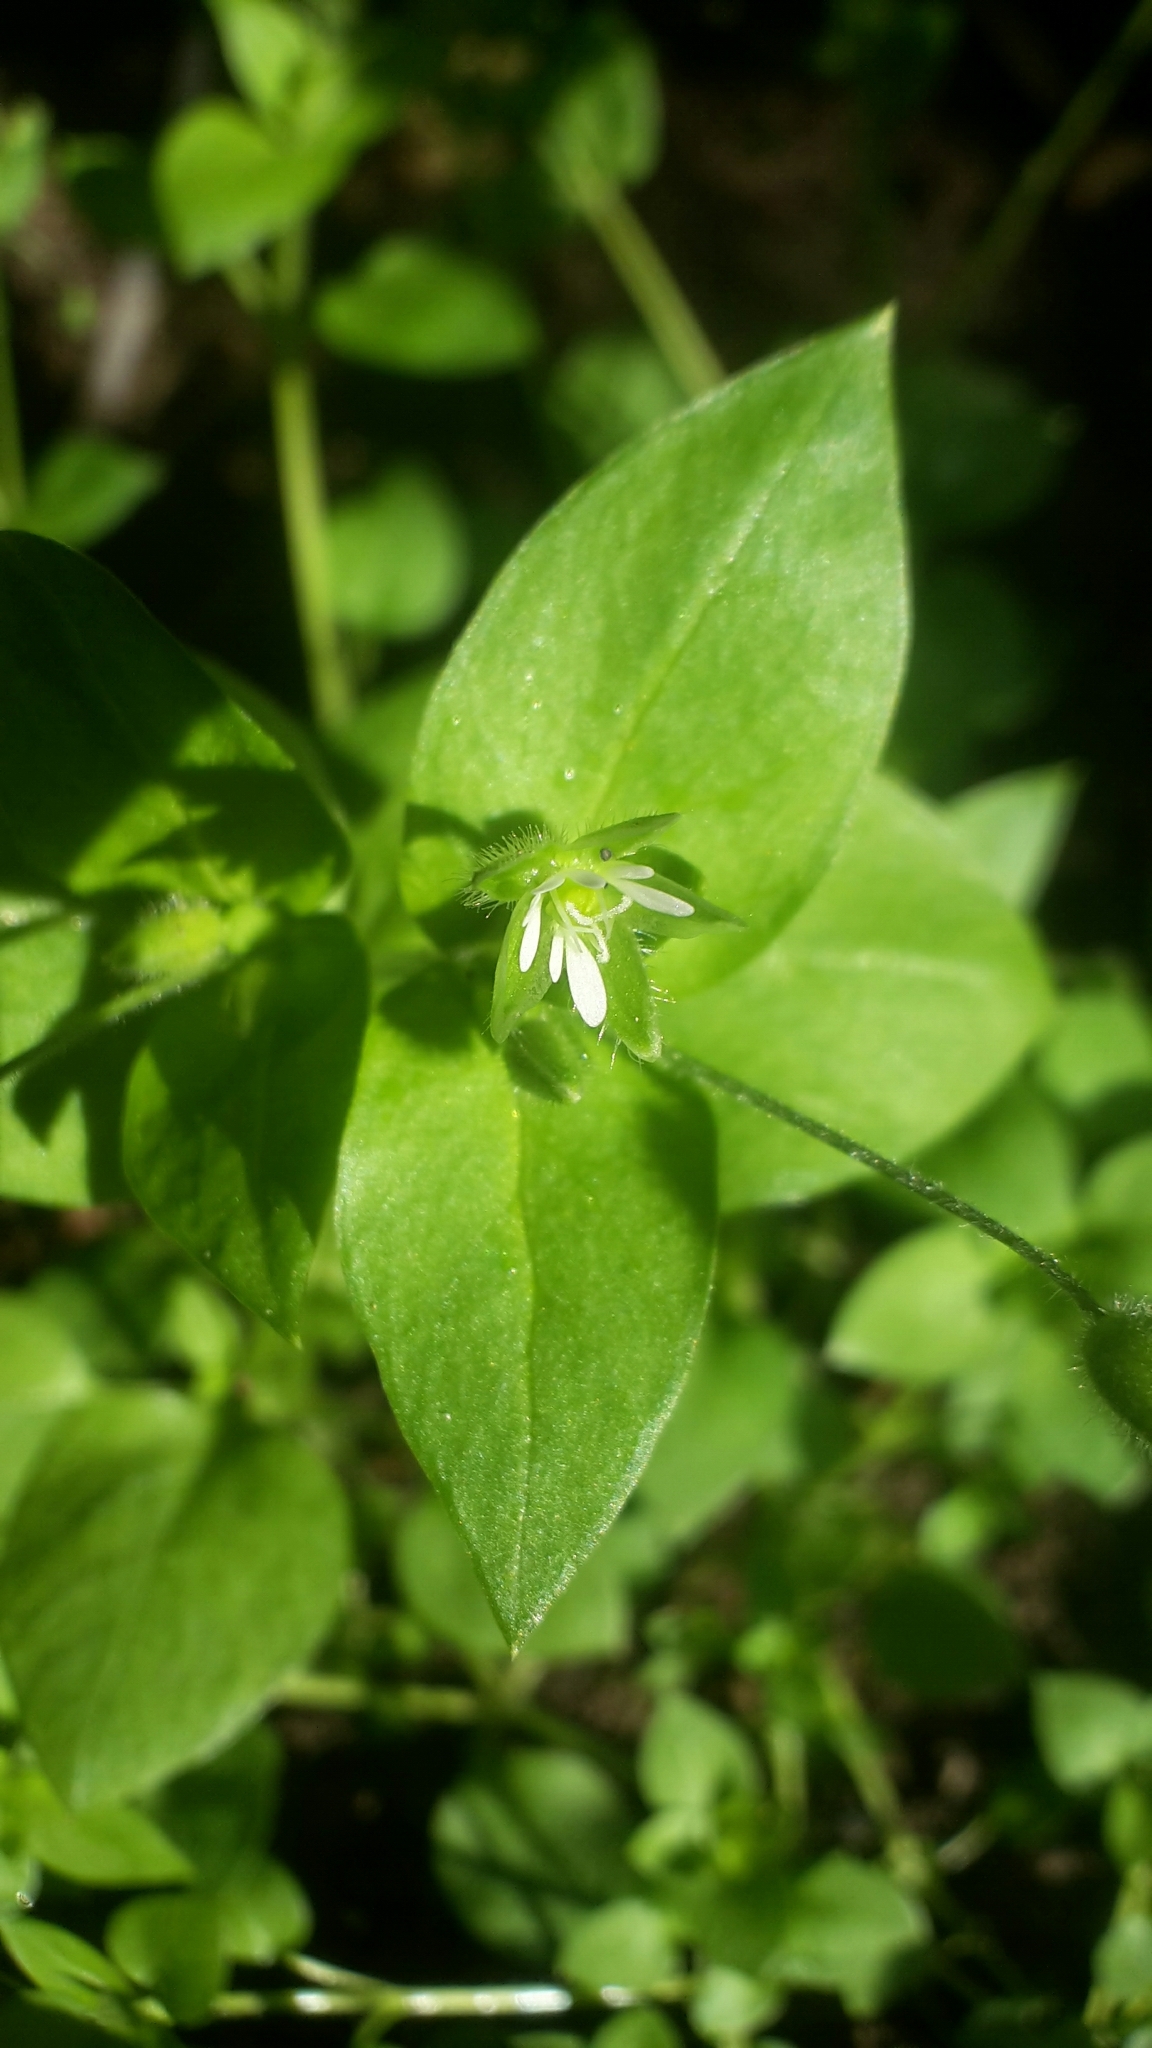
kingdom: Plantae
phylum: Tracheophyta
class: Magnoliopsida
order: Caryophyllales
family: Caryophyllaceae
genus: Stellaria
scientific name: Stellaria media
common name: Common chickweed
